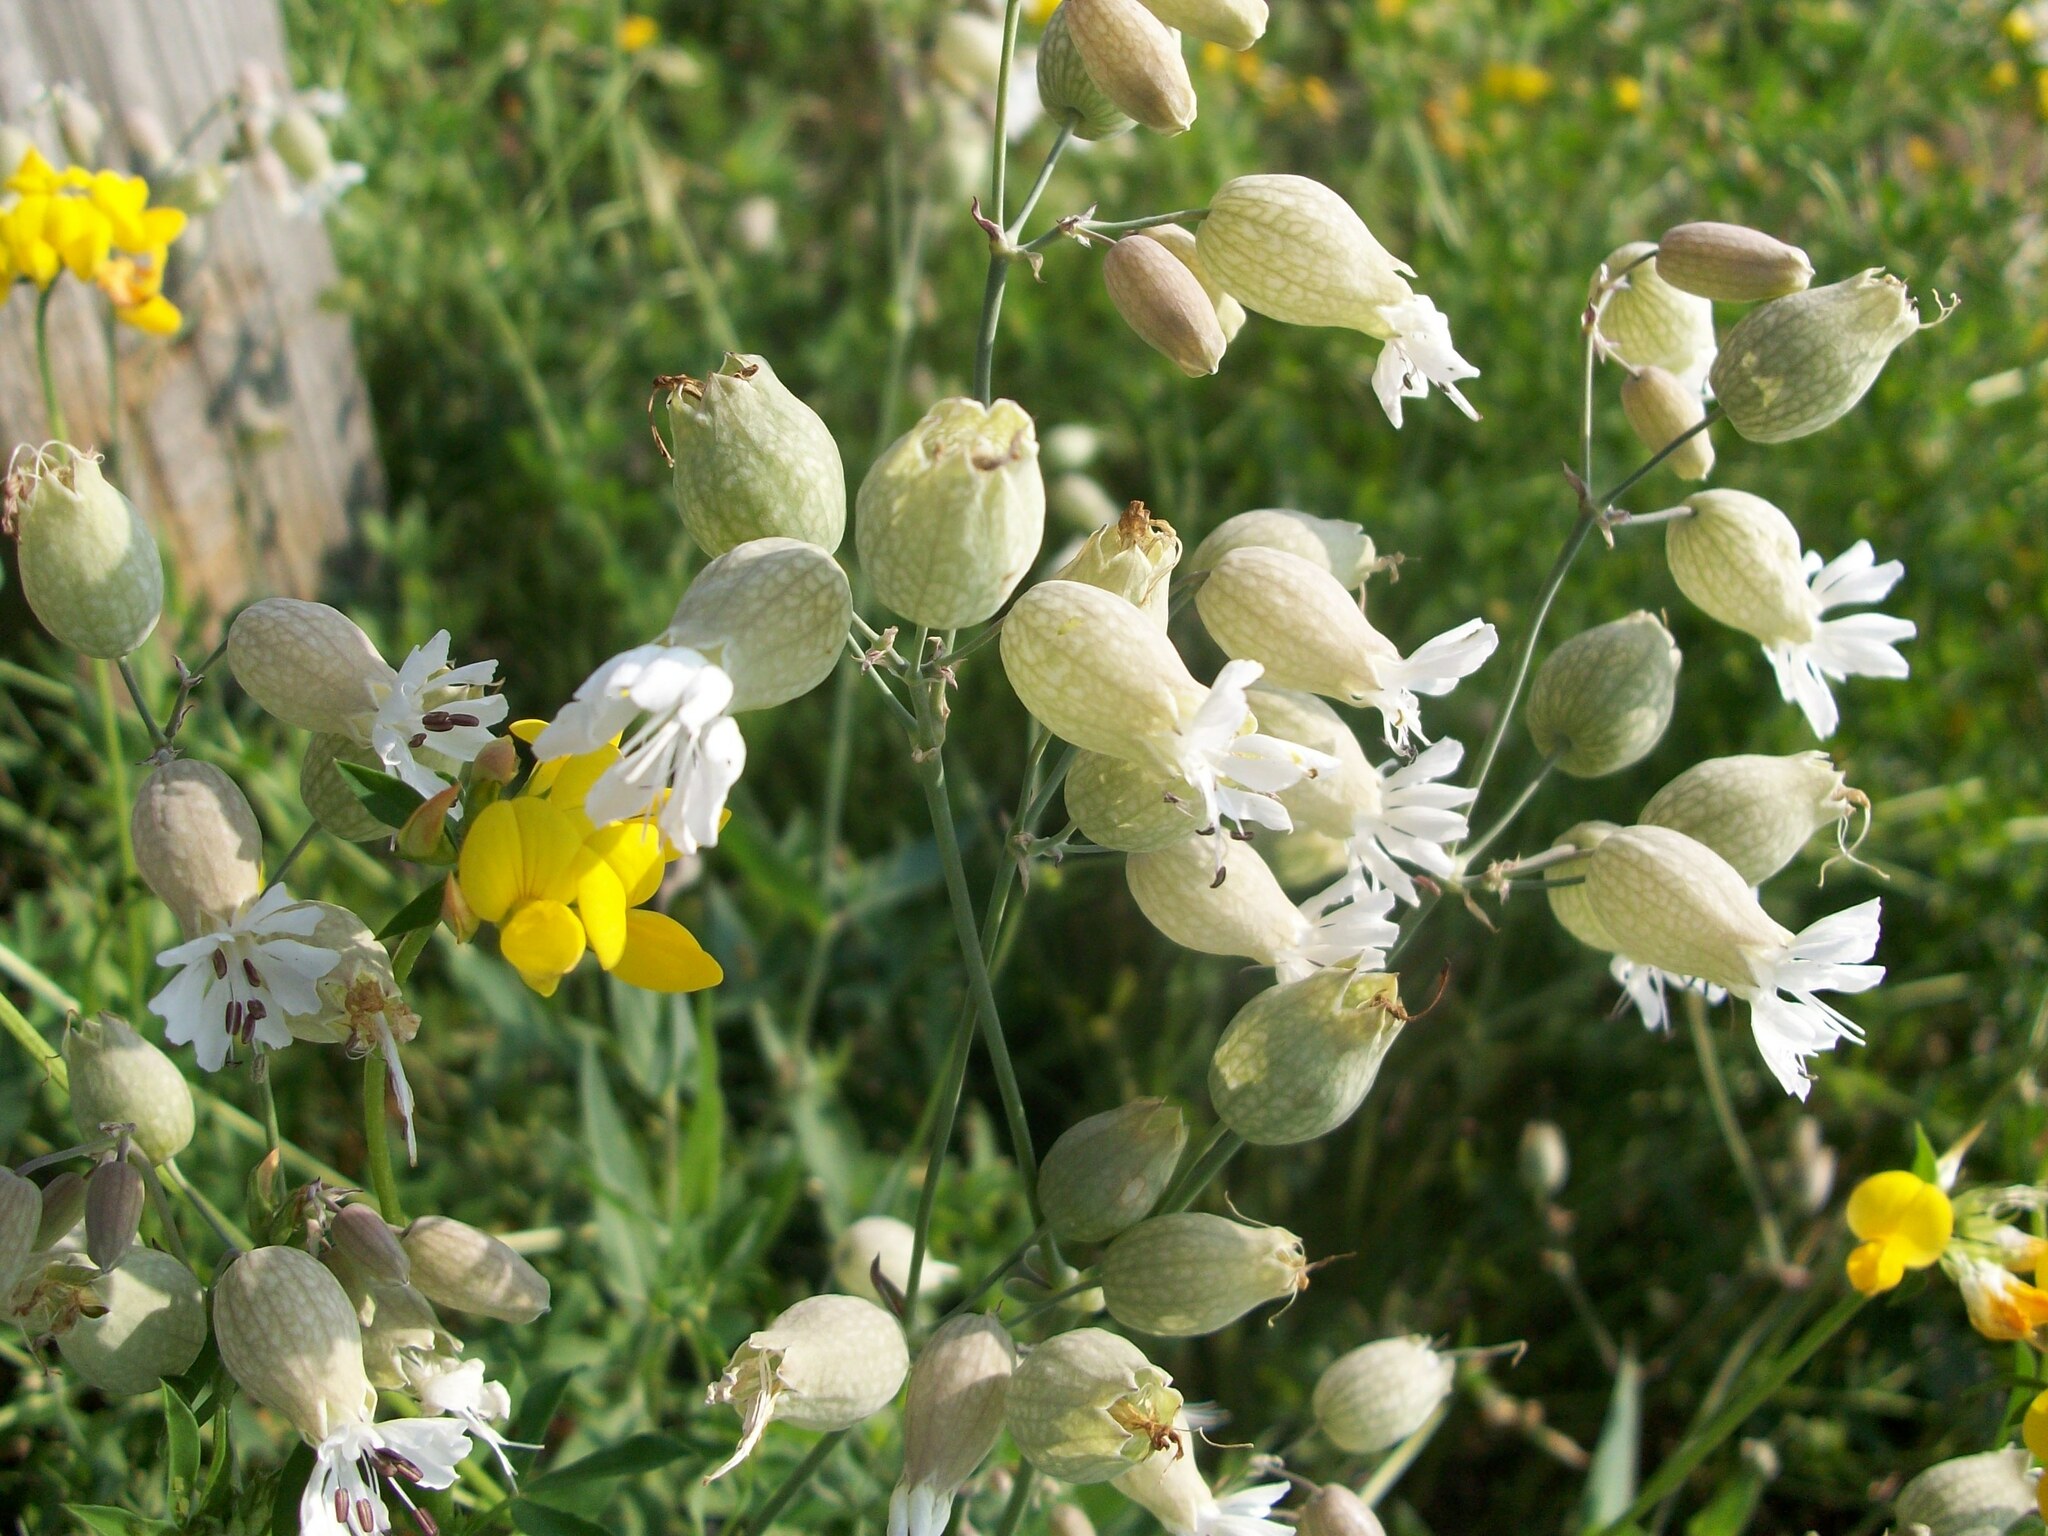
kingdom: Plantae
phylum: Tracheophyta
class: Magnoliopsida
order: Fabales
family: Fabaceae
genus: Lotus
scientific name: Lotus corniculatus
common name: Common bird's-foot-trefoil
